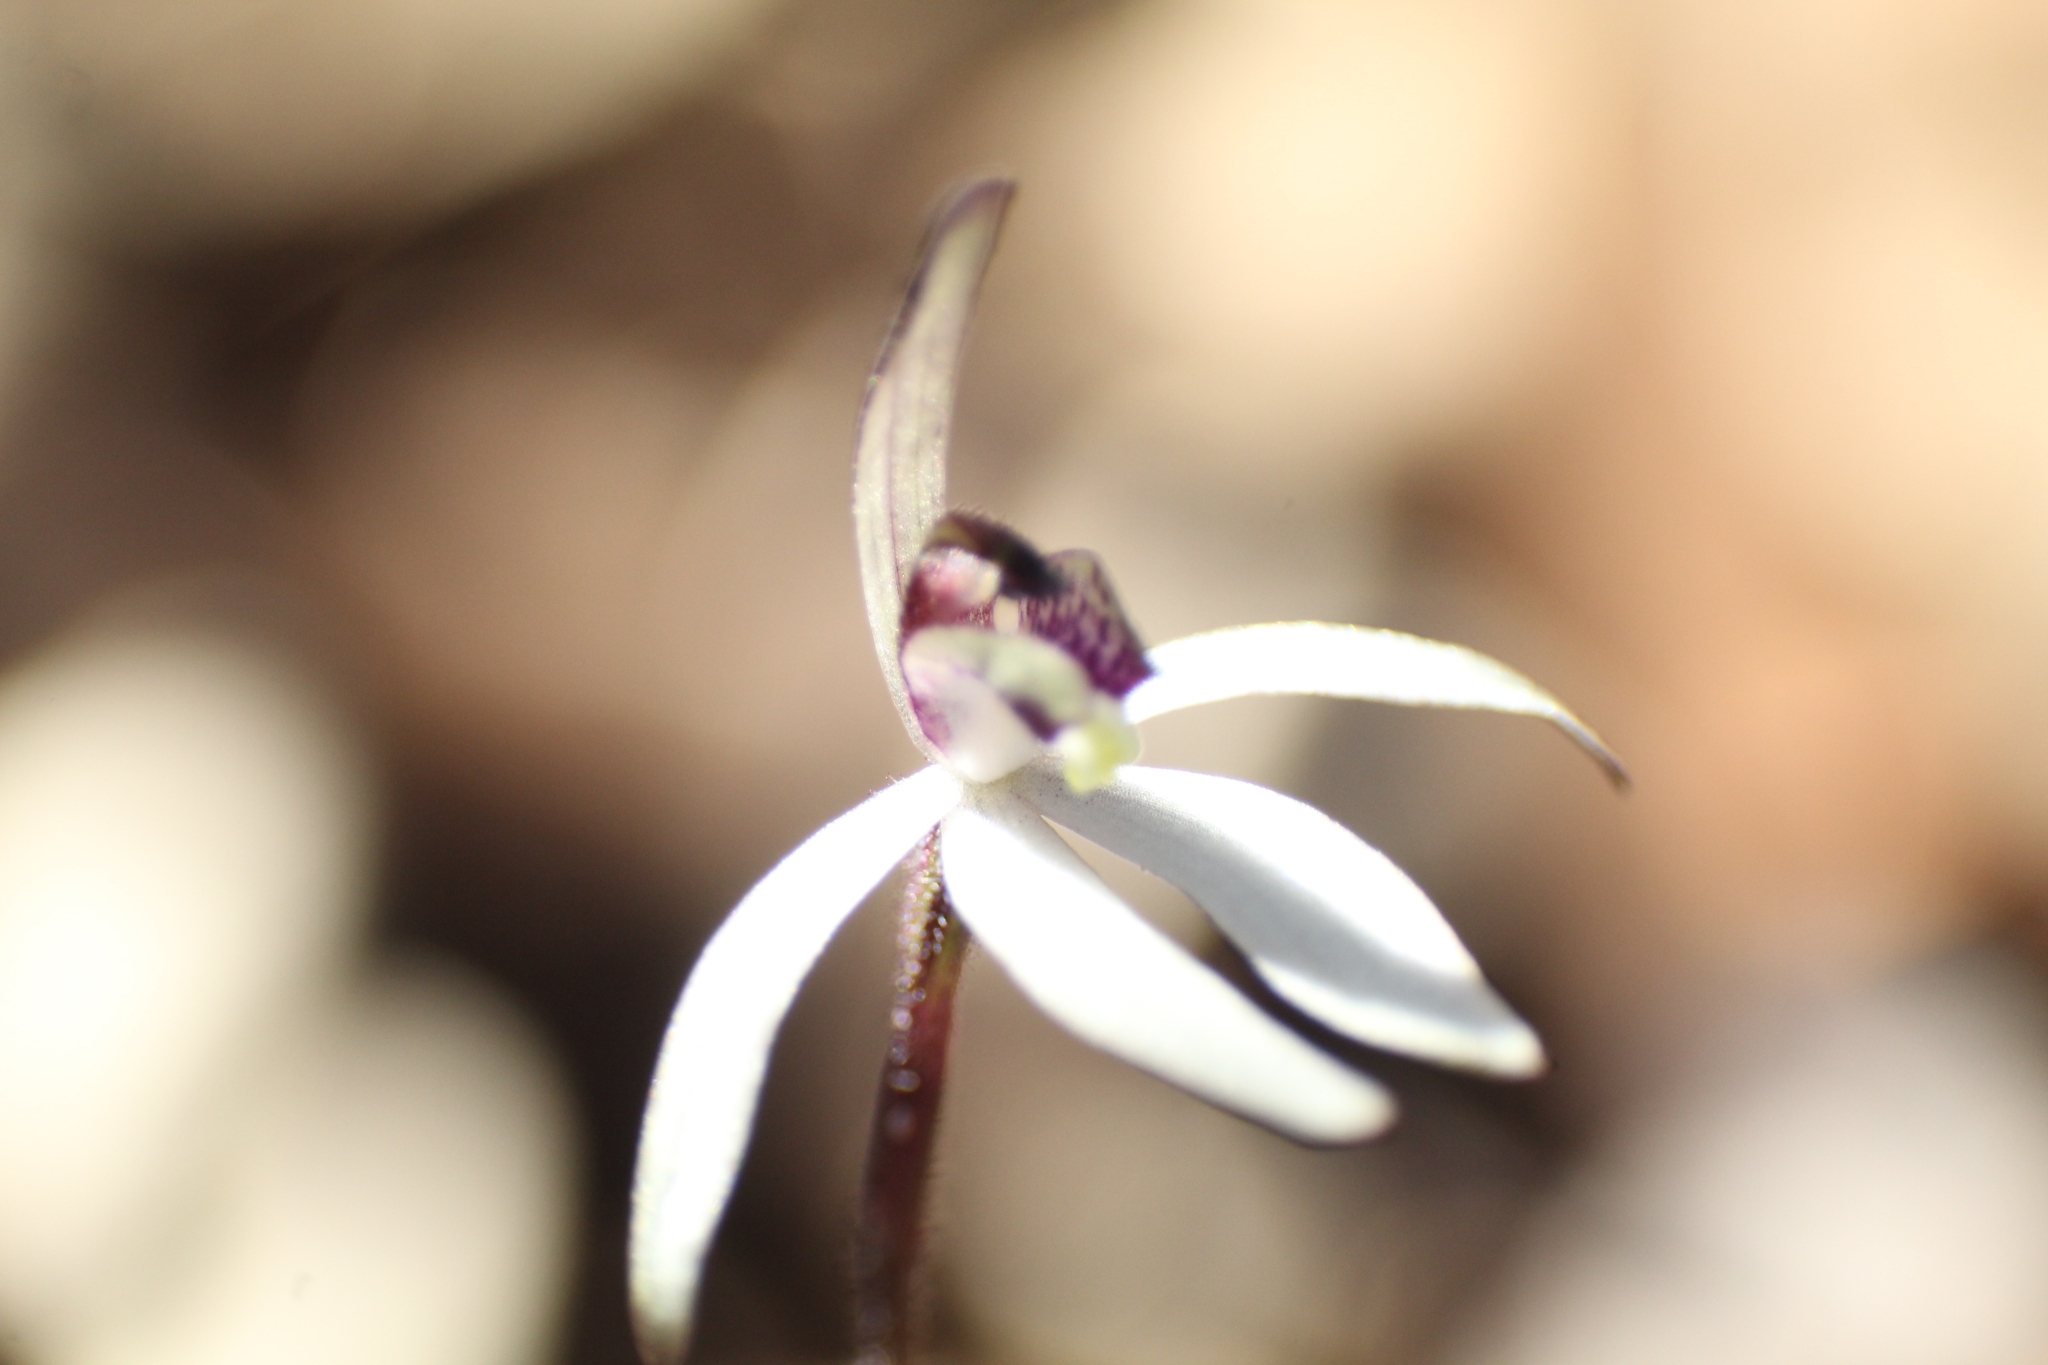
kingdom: Plantae
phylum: Tracheophyta
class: Liliopsida
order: Asparagales
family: Orchidaceae
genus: Caladenia
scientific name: Caladenia saccharata
